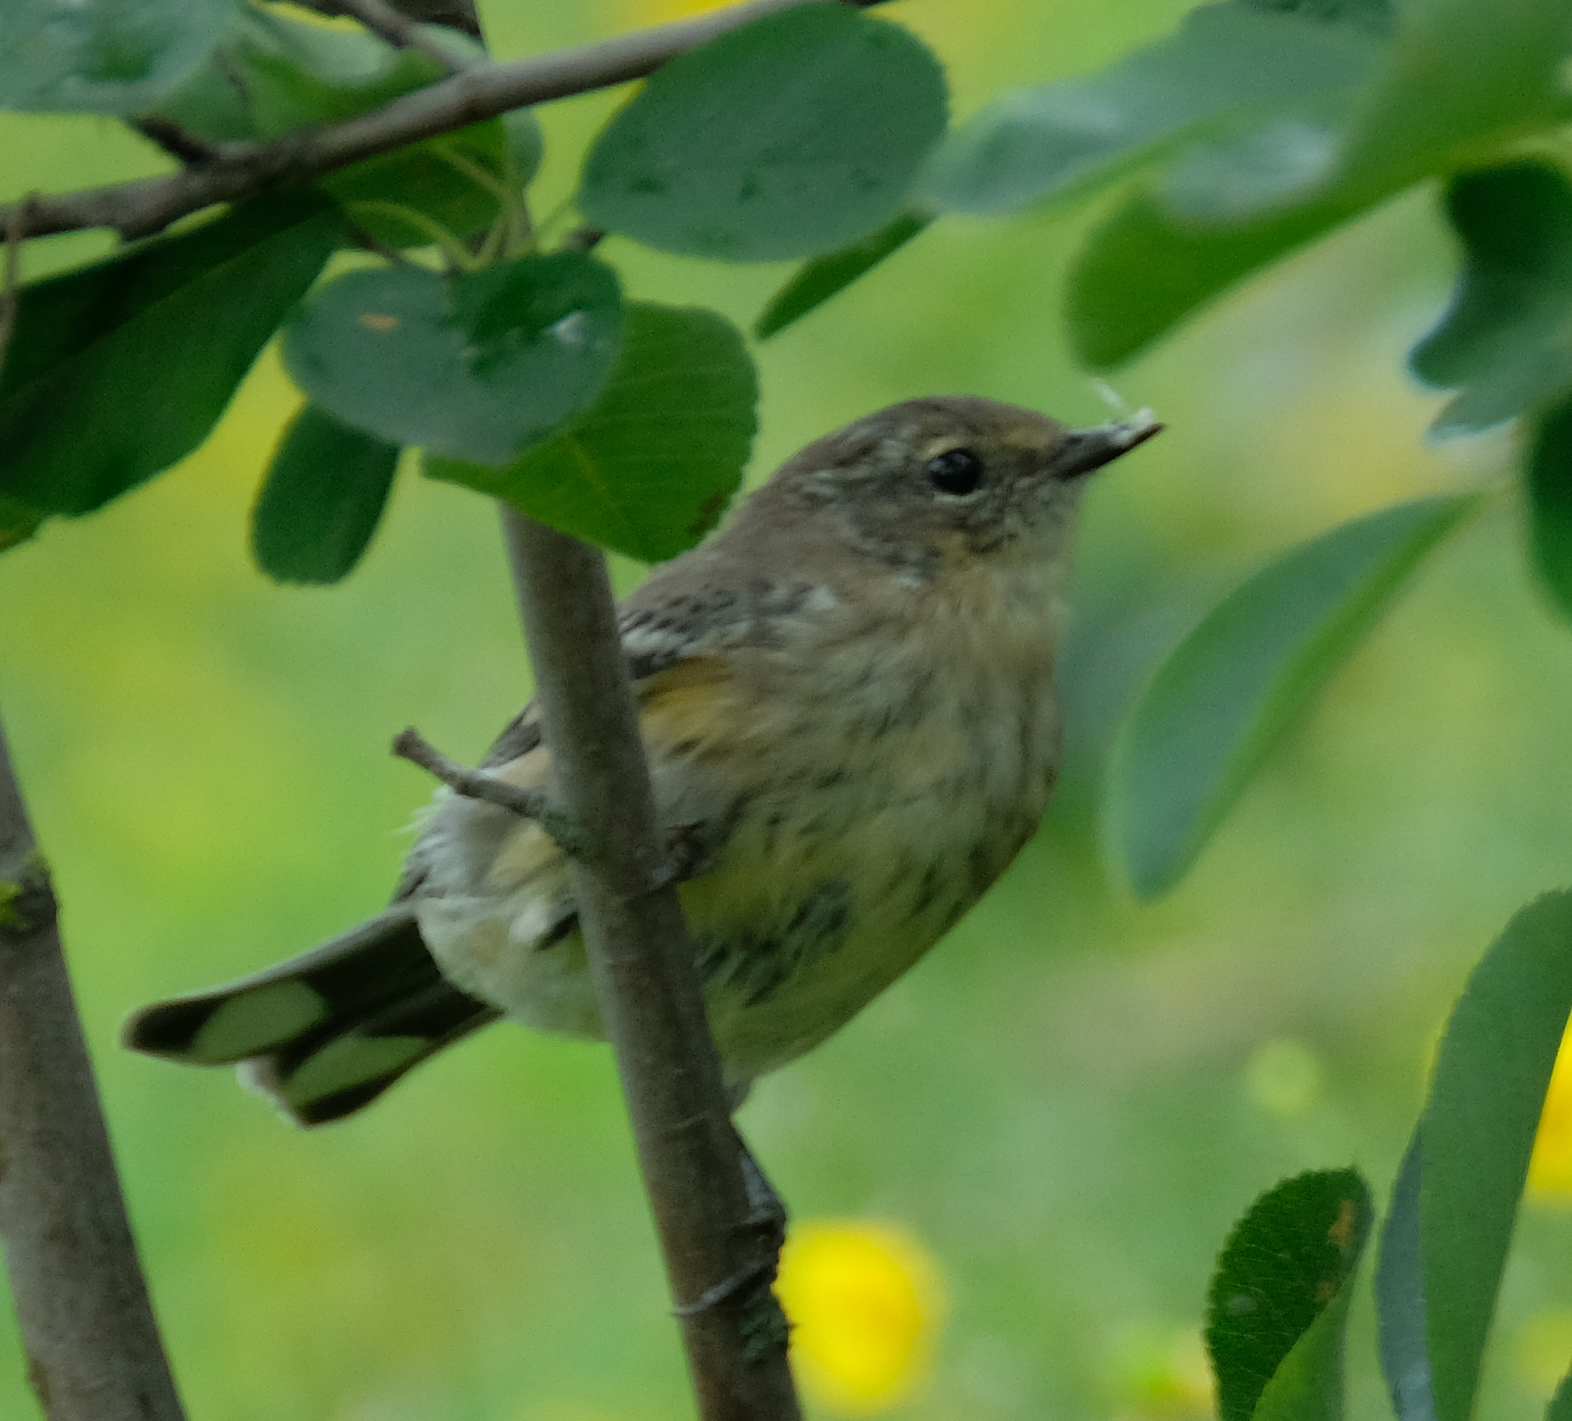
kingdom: Animalia
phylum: Chordata
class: Aves
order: Passeriformes
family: Parulidae
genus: Setophaga
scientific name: Setophaga coronata
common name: Myrtle warbler
